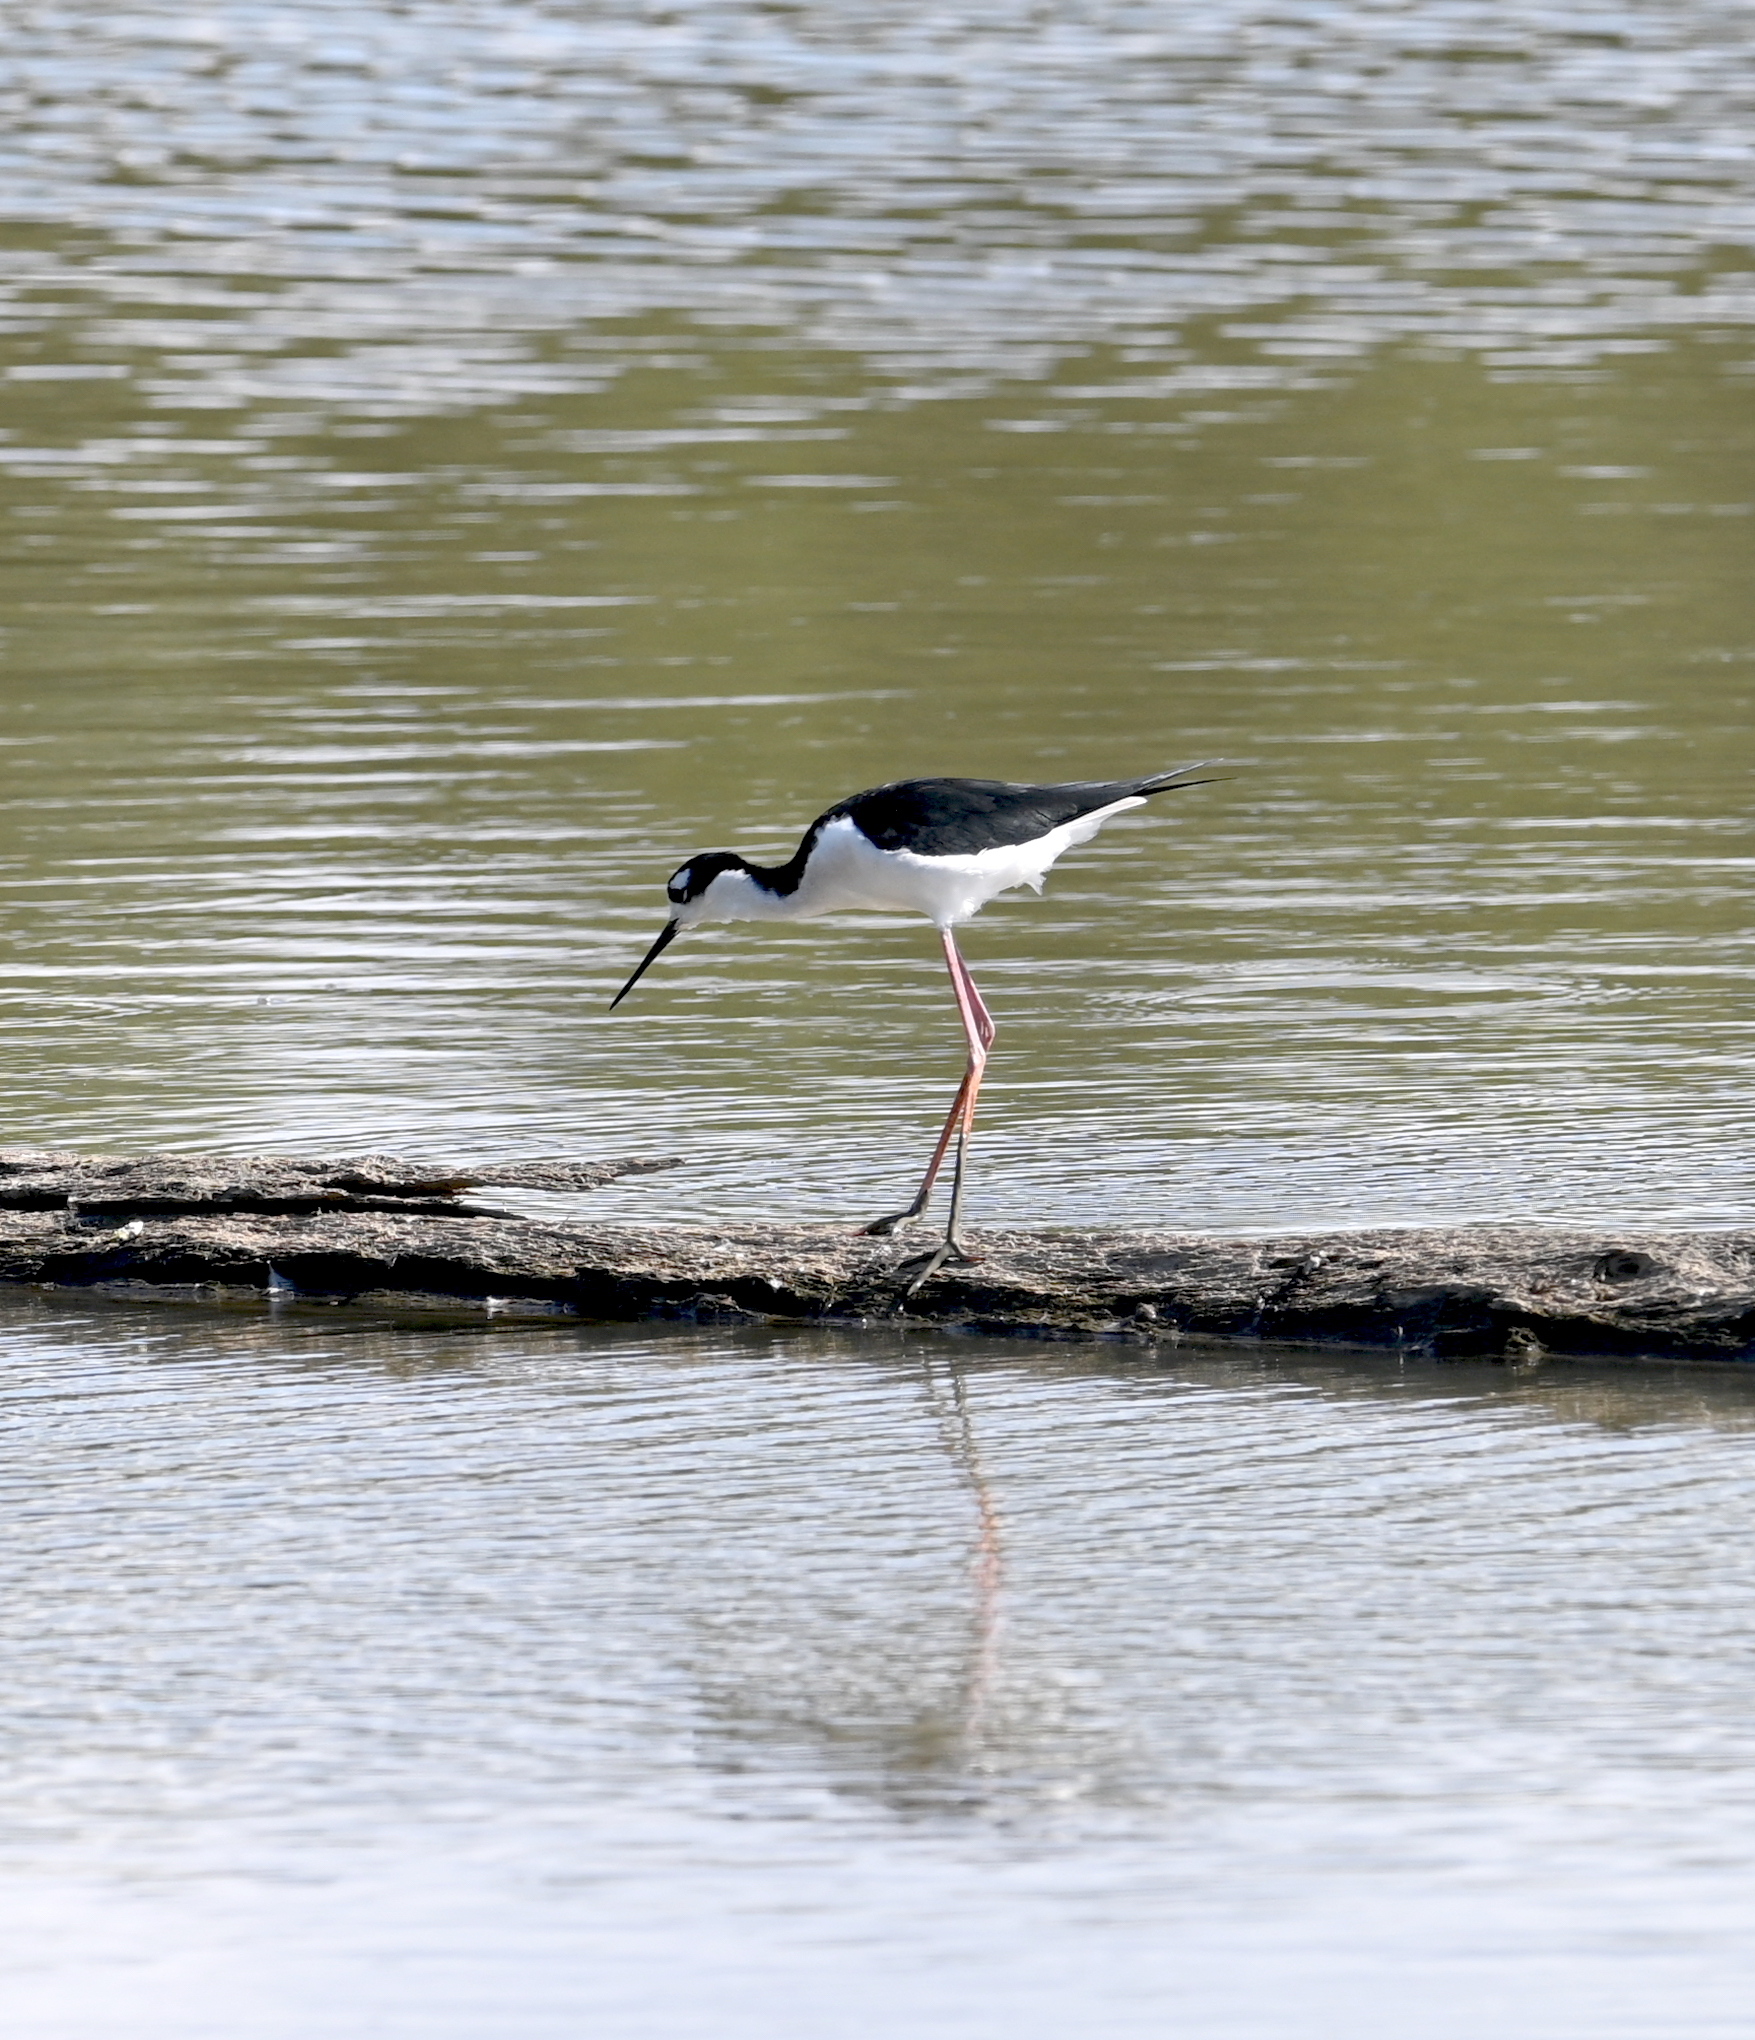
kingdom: Animalia
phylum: Chordata
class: Aves
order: Charadriiformes
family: Recurvirostridae
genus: Himantopus
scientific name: Himantopus mexicanus
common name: Black-necked stilt
